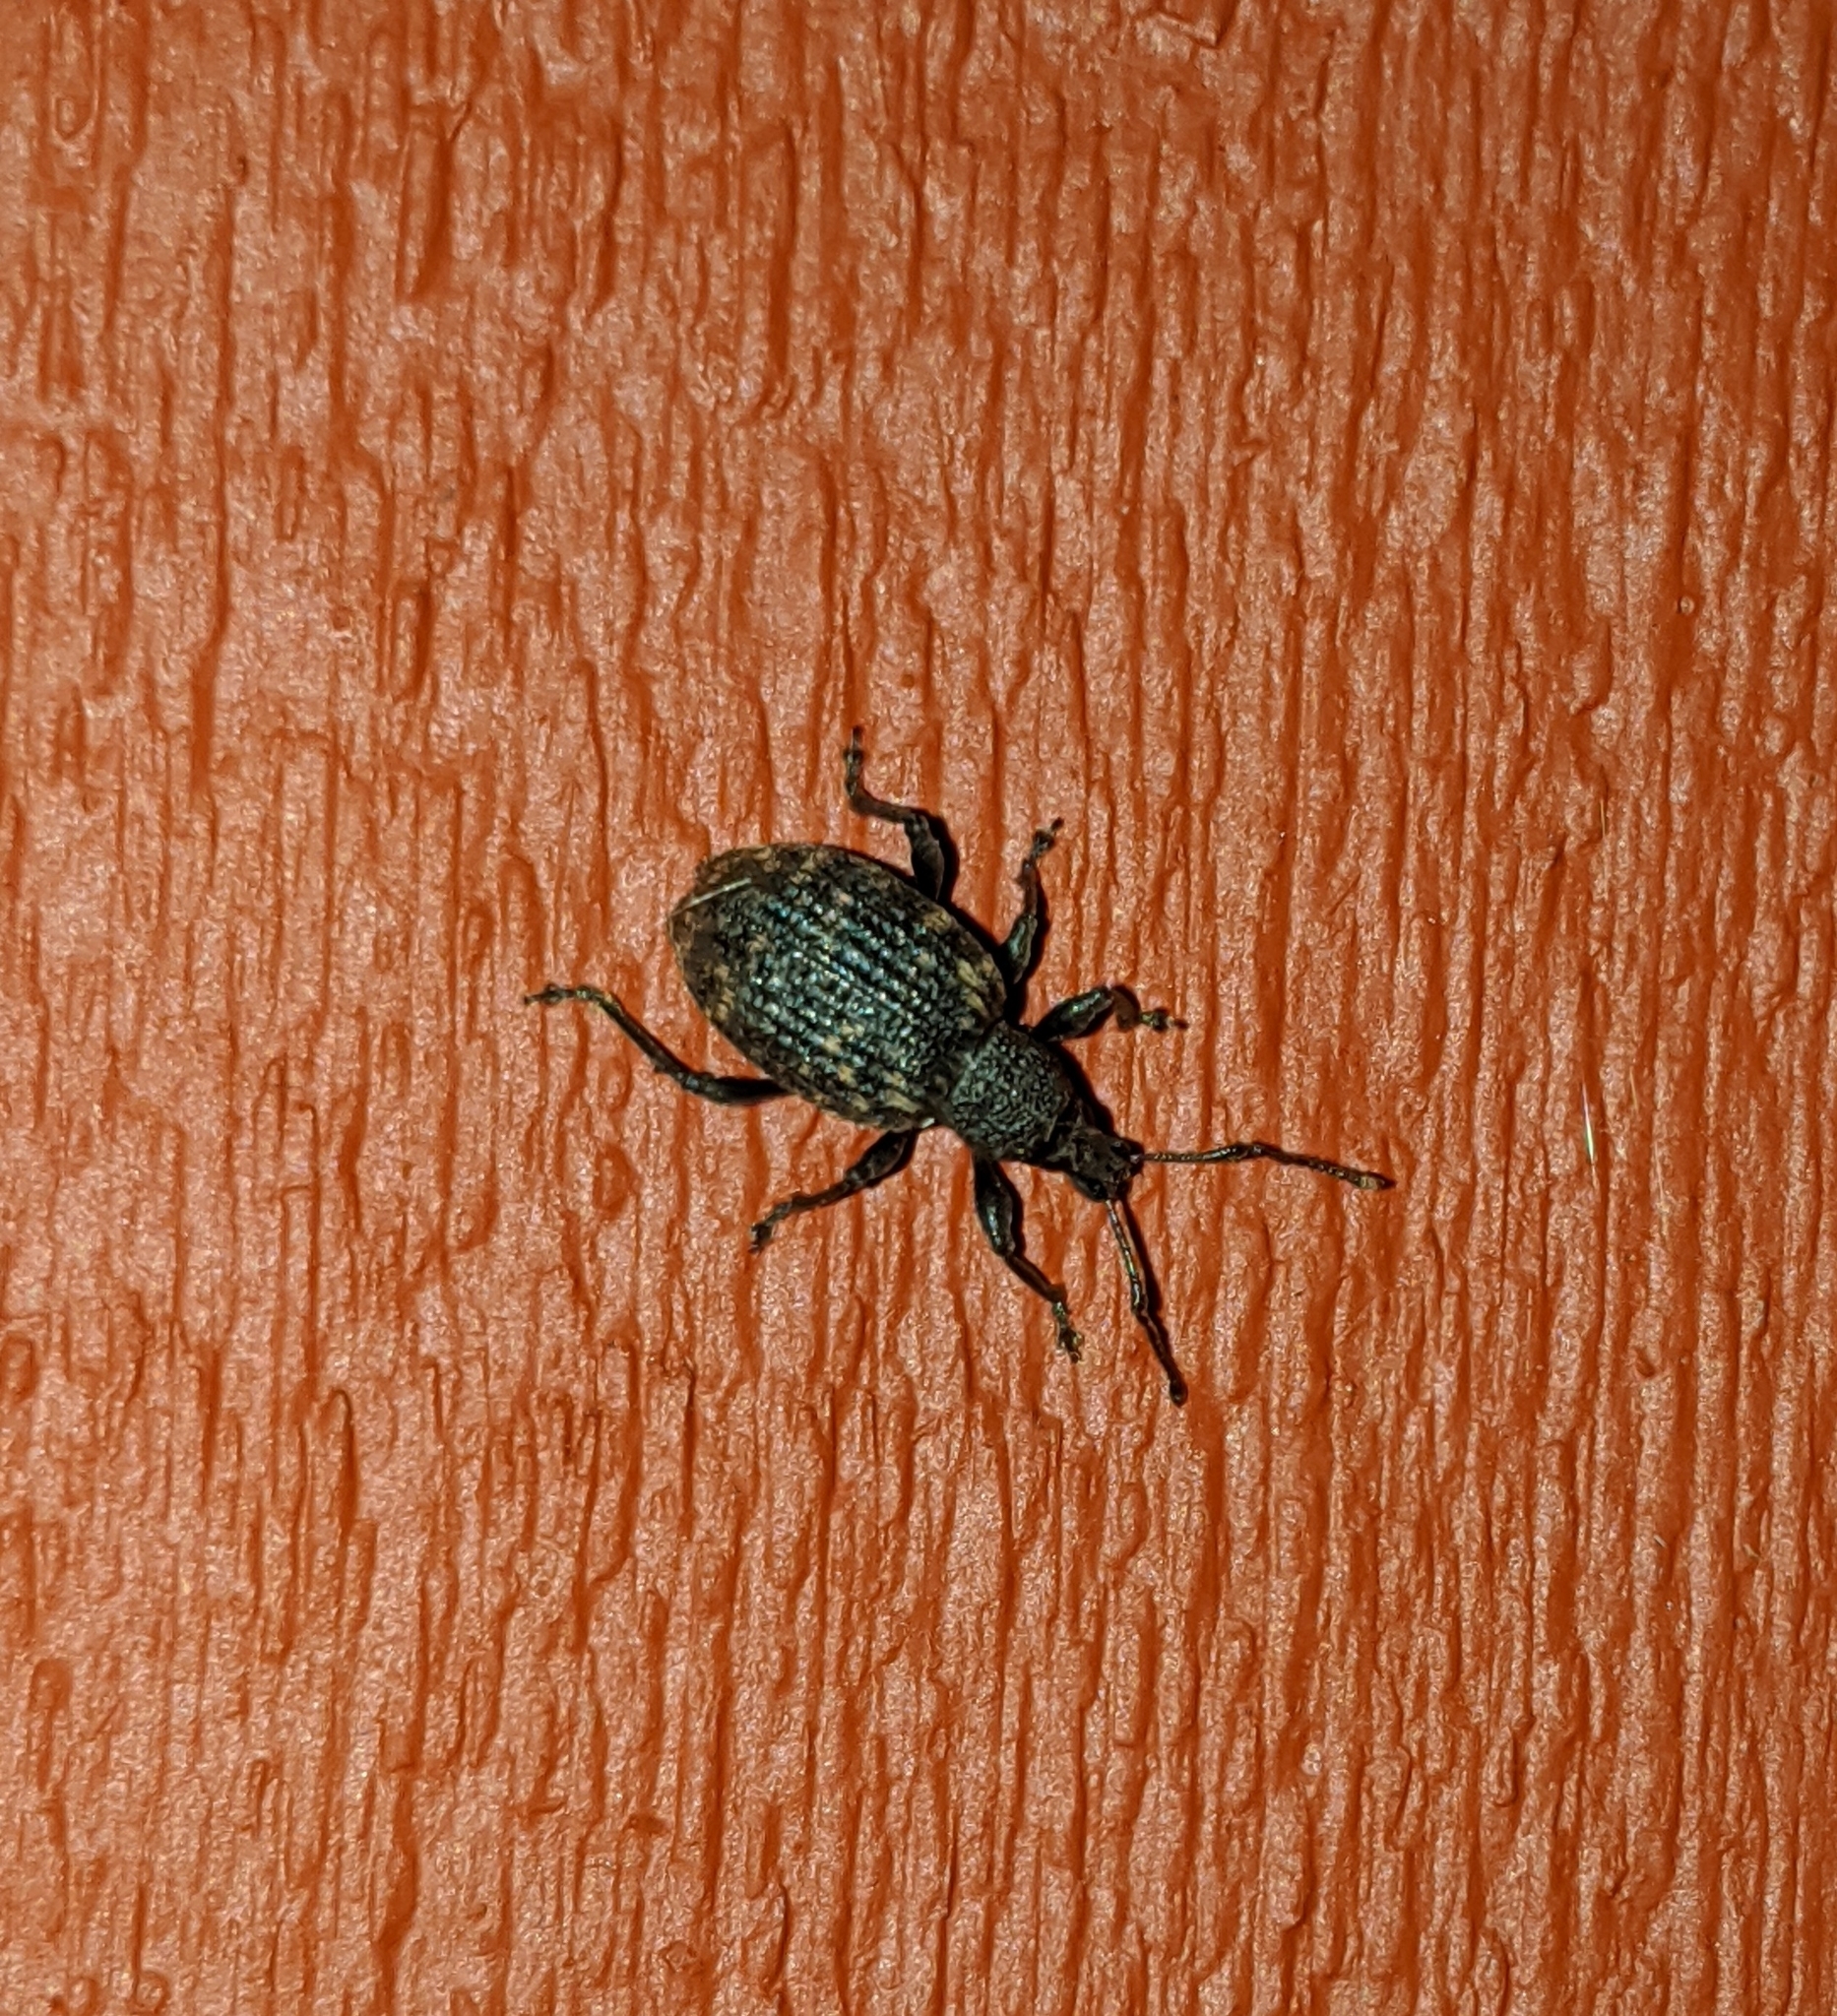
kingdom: Animalia
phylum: Arthropoda
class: Insecta
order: Coleoptera
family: Curculionidae
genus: Otiorhynchus
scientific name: Otiorhynchus sulcatus
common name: Black vine weevil
